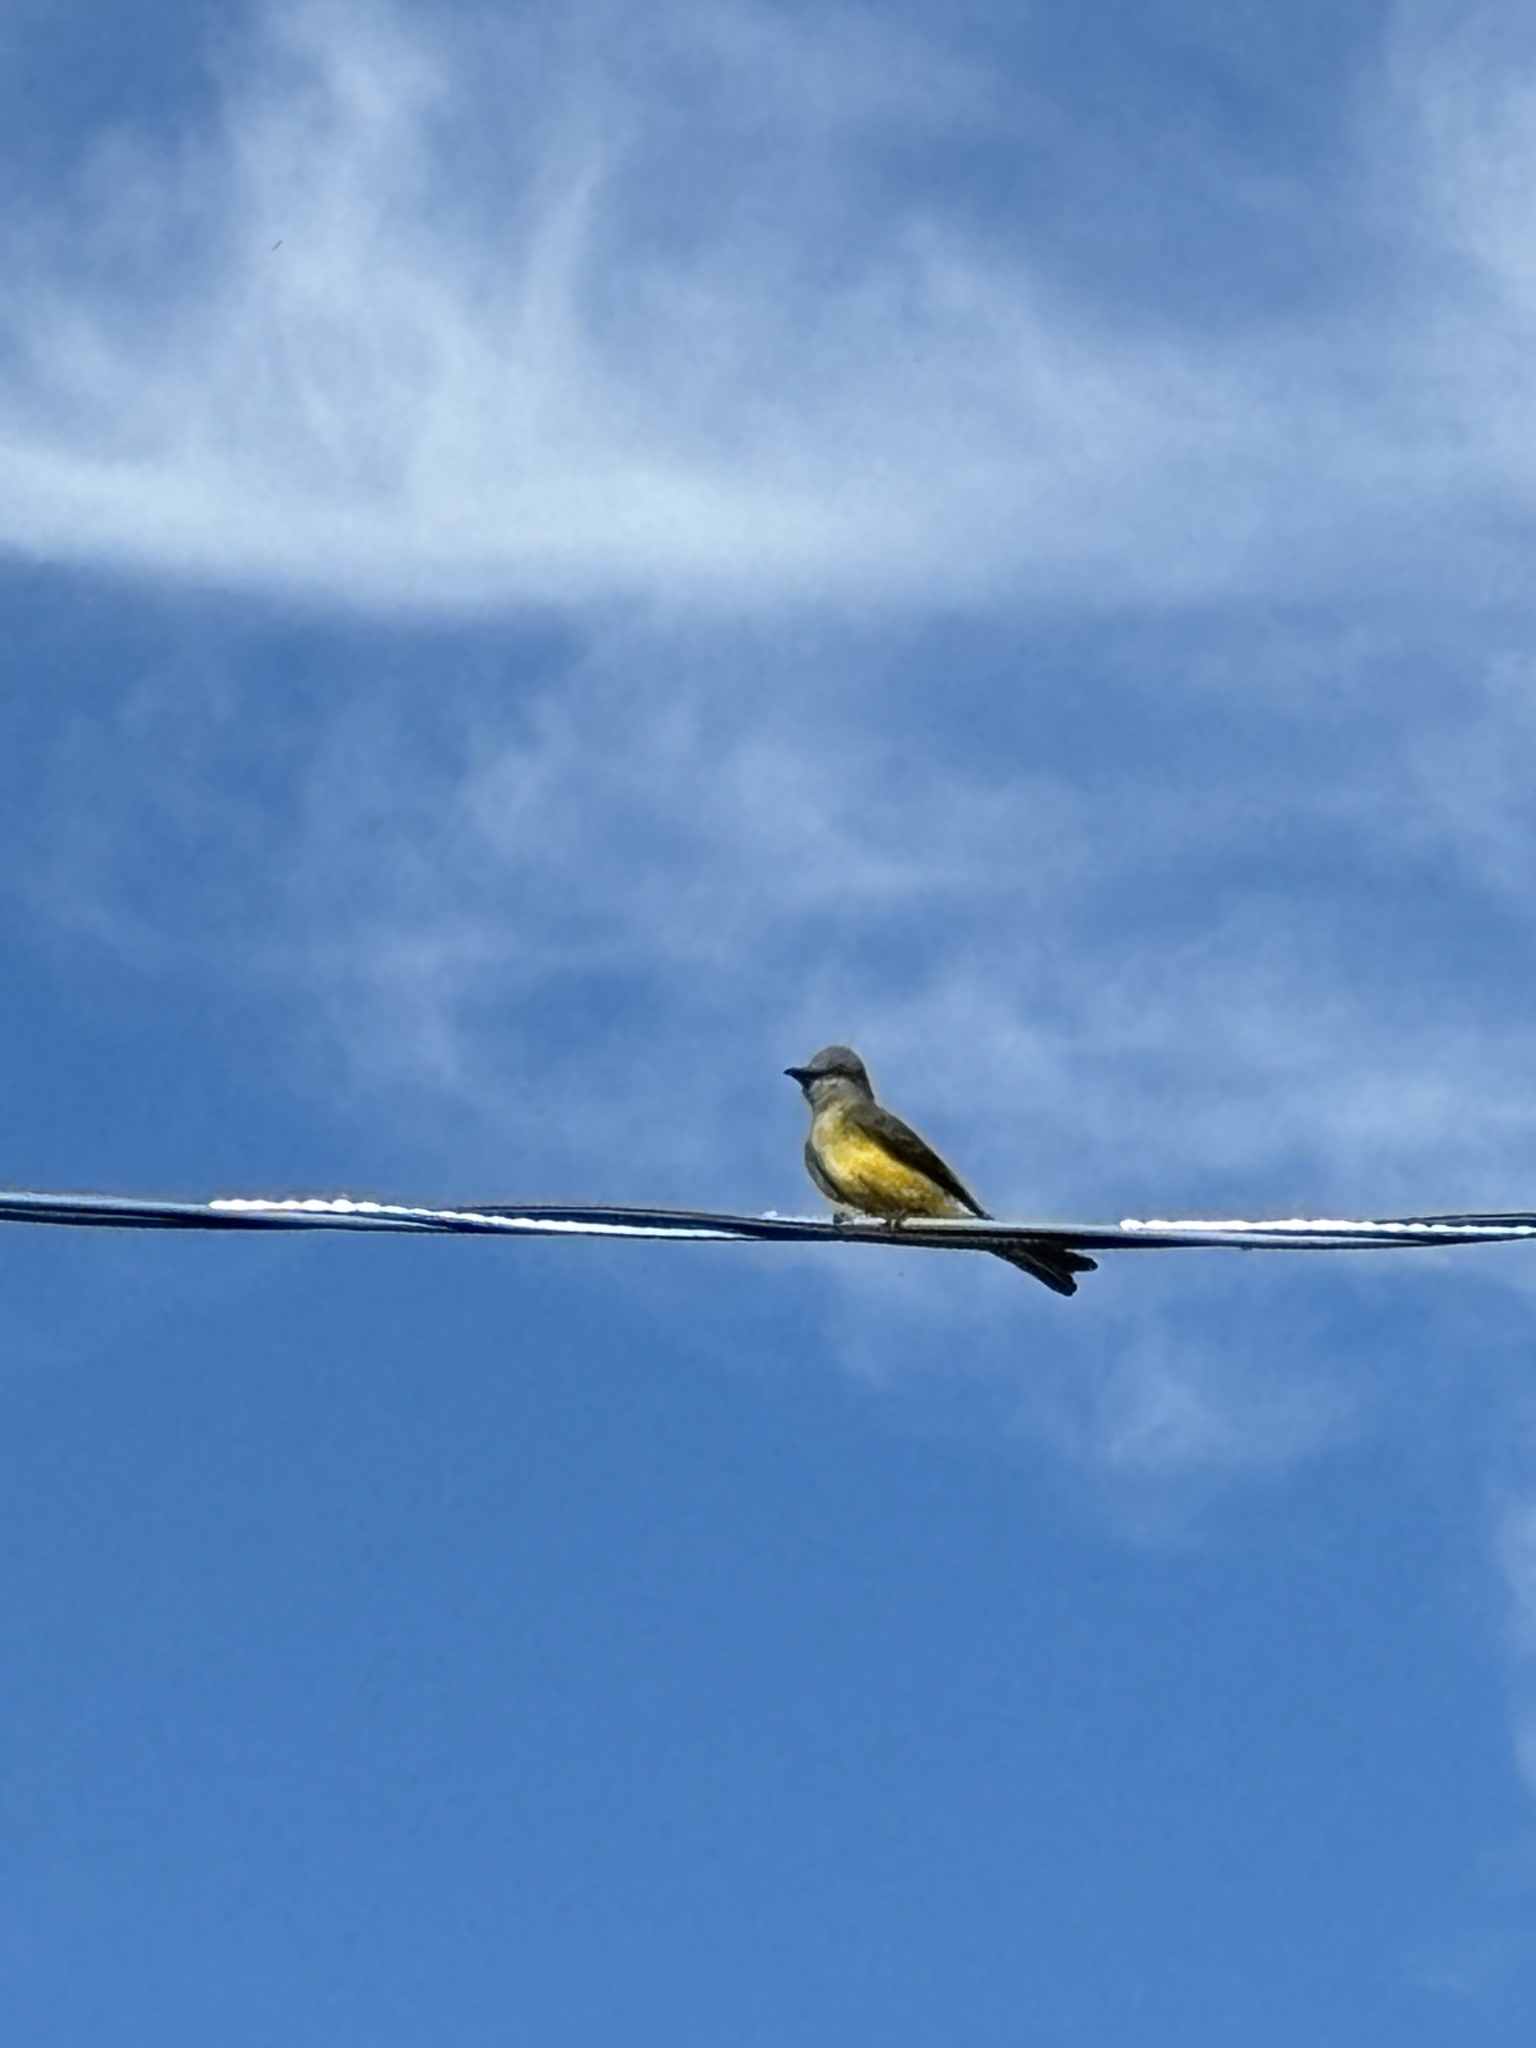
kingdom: Animalia
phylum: Chordata
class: Aves
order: Passeriformes
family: Tyrannidae
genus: Tyrannus
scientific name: Tyrannus melancholicus
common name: Tropical kingbird
